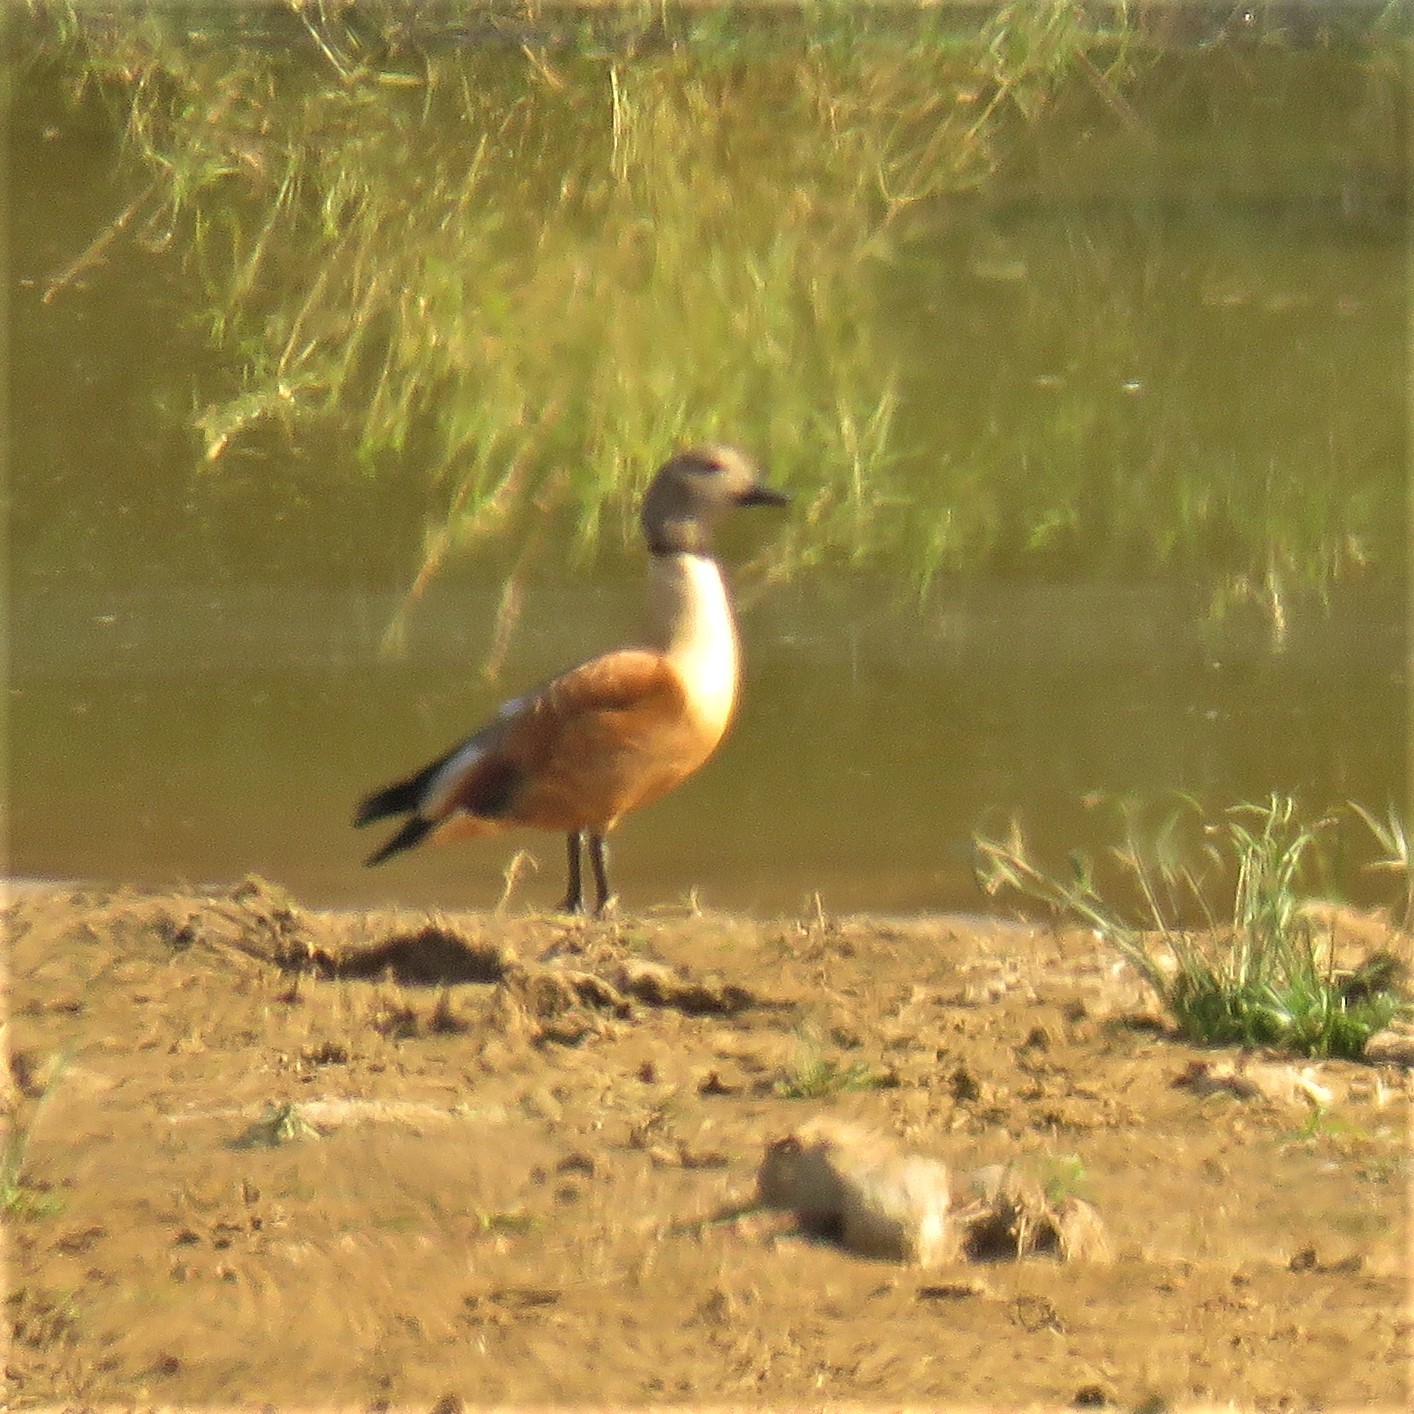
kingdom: Animalia
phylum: Chordata
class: Aves
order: Anseriformes
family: Anatidae
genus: Tadorna
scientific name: Tadorna cana
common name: South african shelduck
